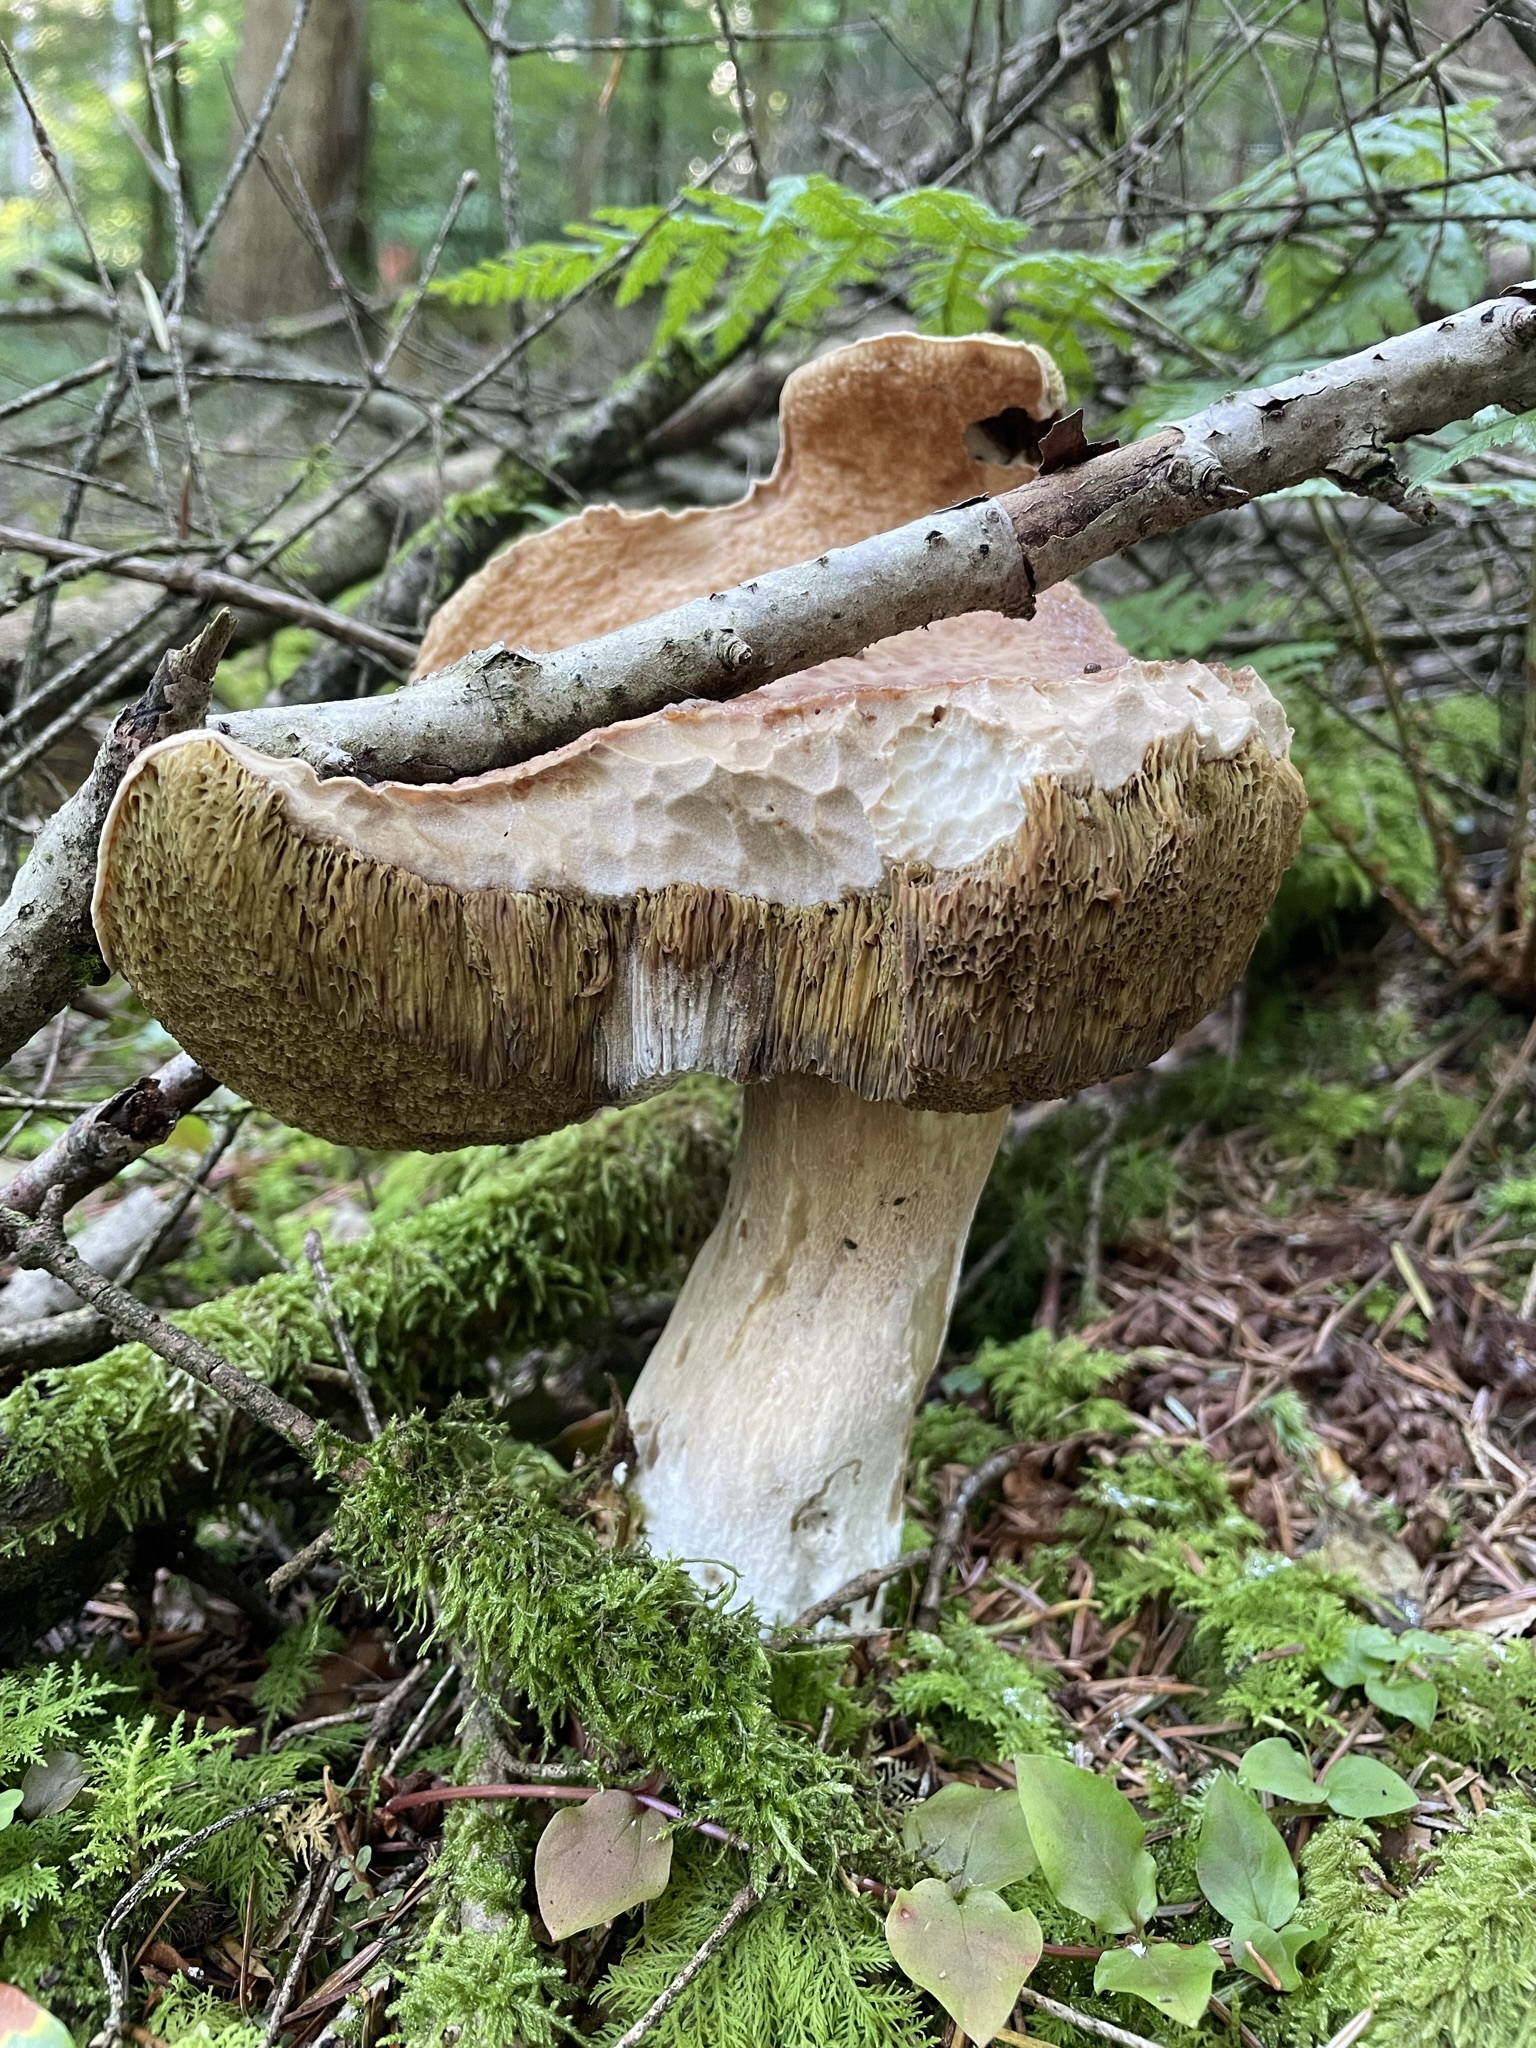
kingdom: Fungi
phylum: Basidiomycota
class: Agaricomycetes
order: Boletales
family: Boletaceae
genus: Boletus
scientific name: Boletus edulis
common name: Cep
